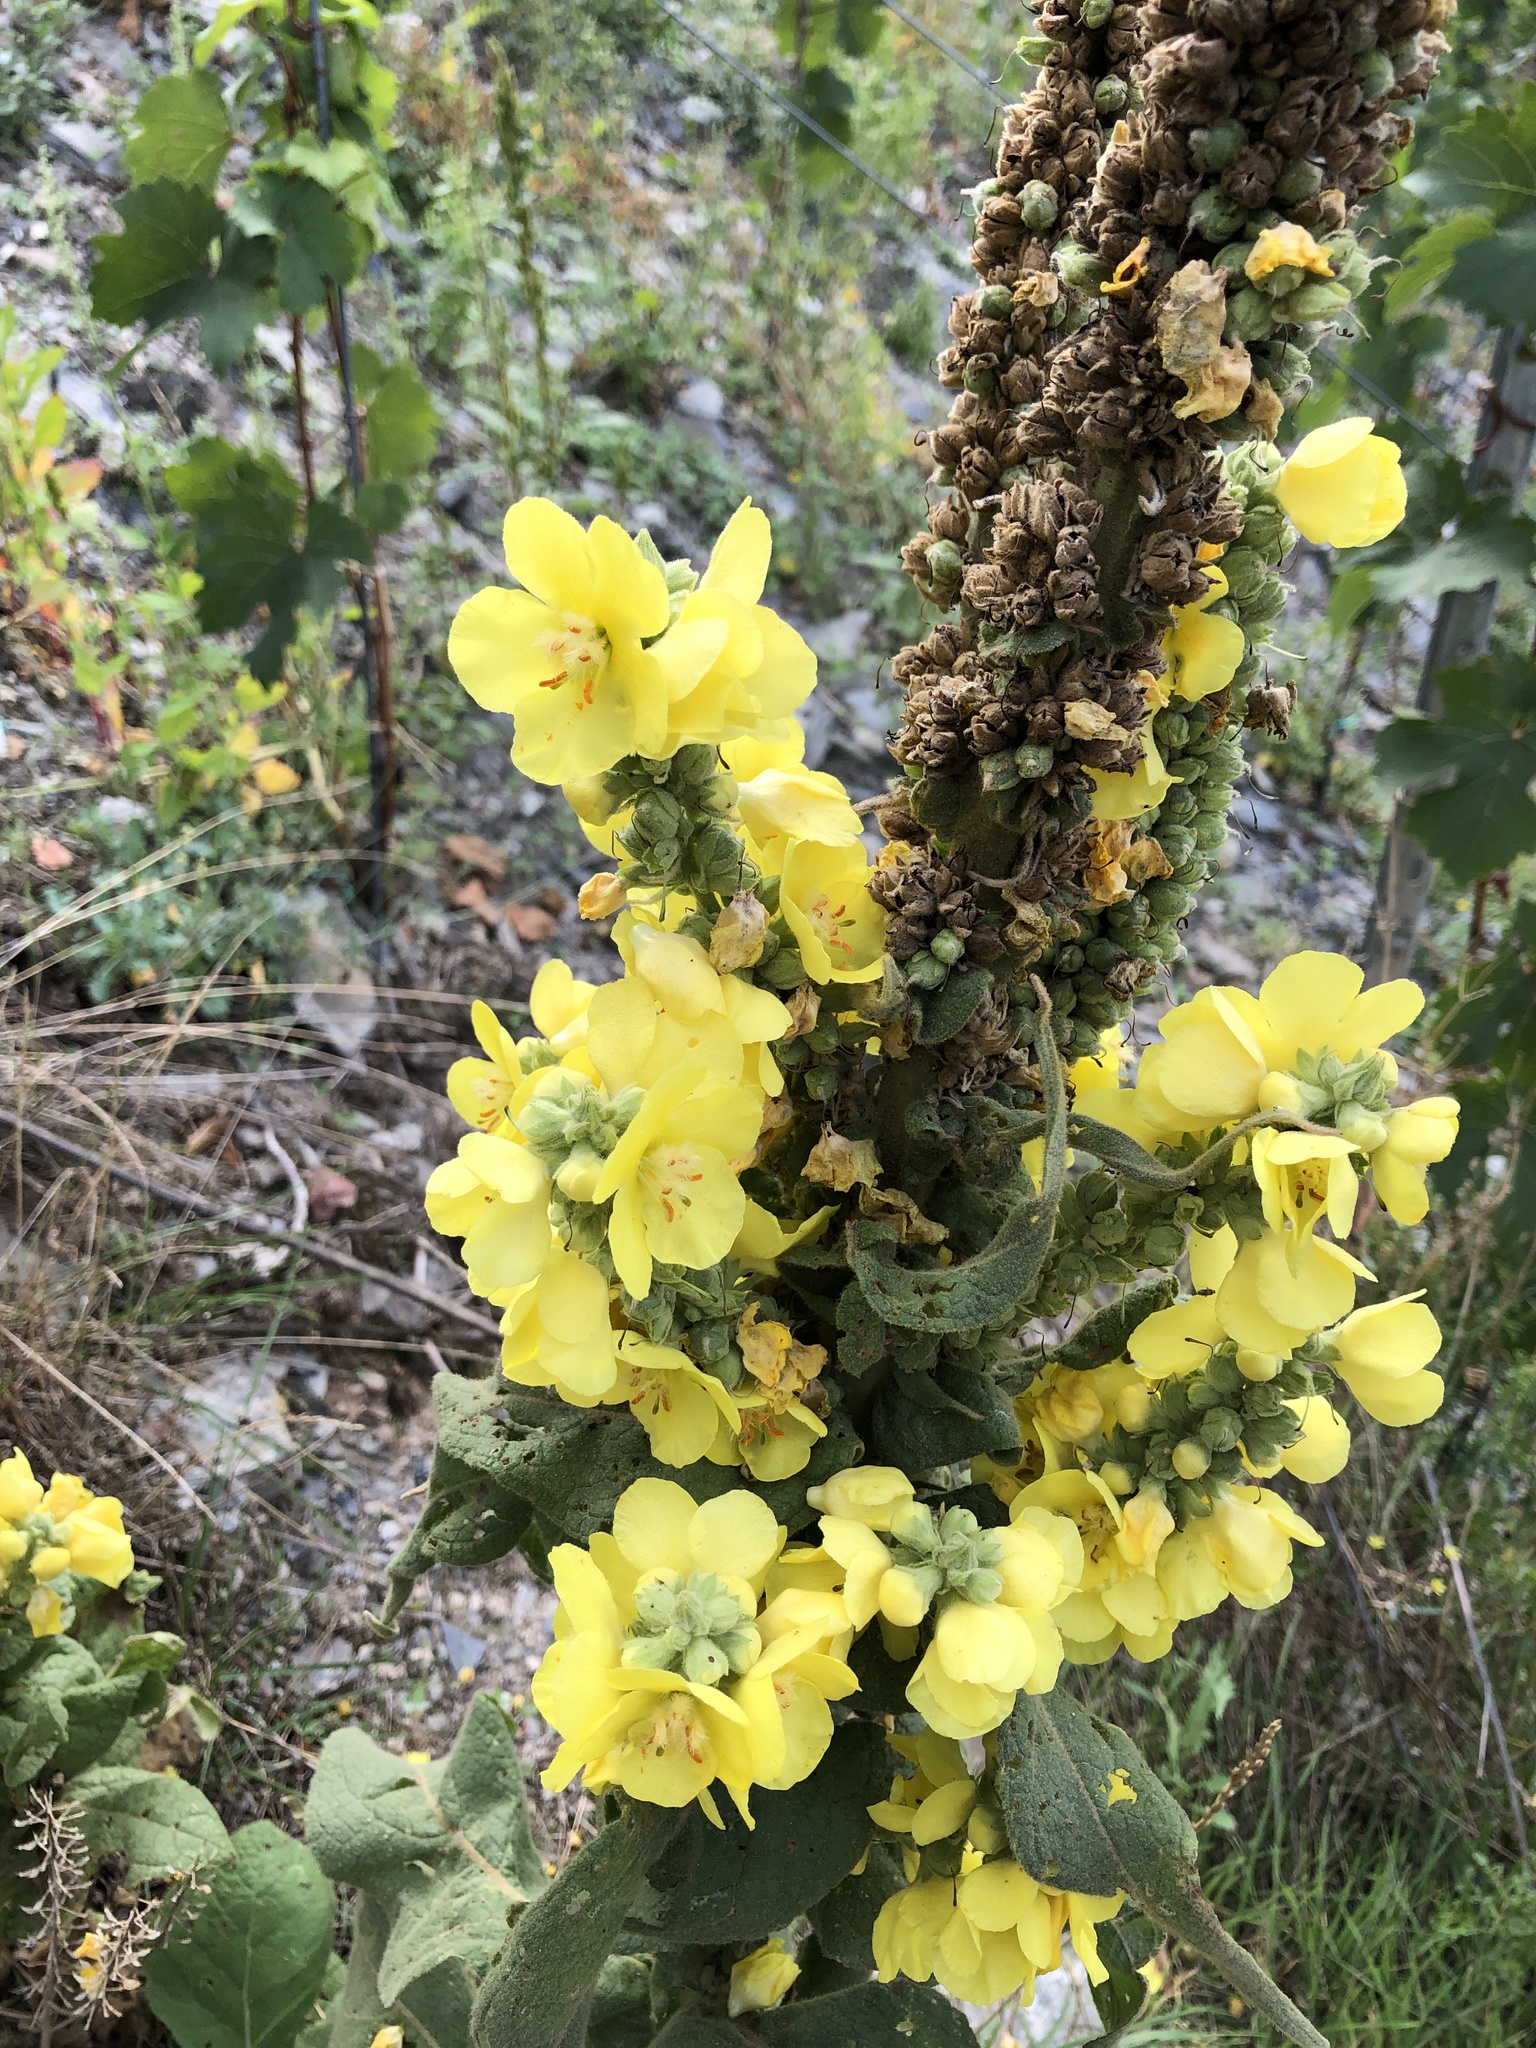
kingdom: Plantae
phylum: Tracheophyta
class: Magnoliopsida
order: Lamiales
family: Scrophulariaceae
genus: Verbascum
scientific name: Verbascum thapsus
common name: Common mullein
